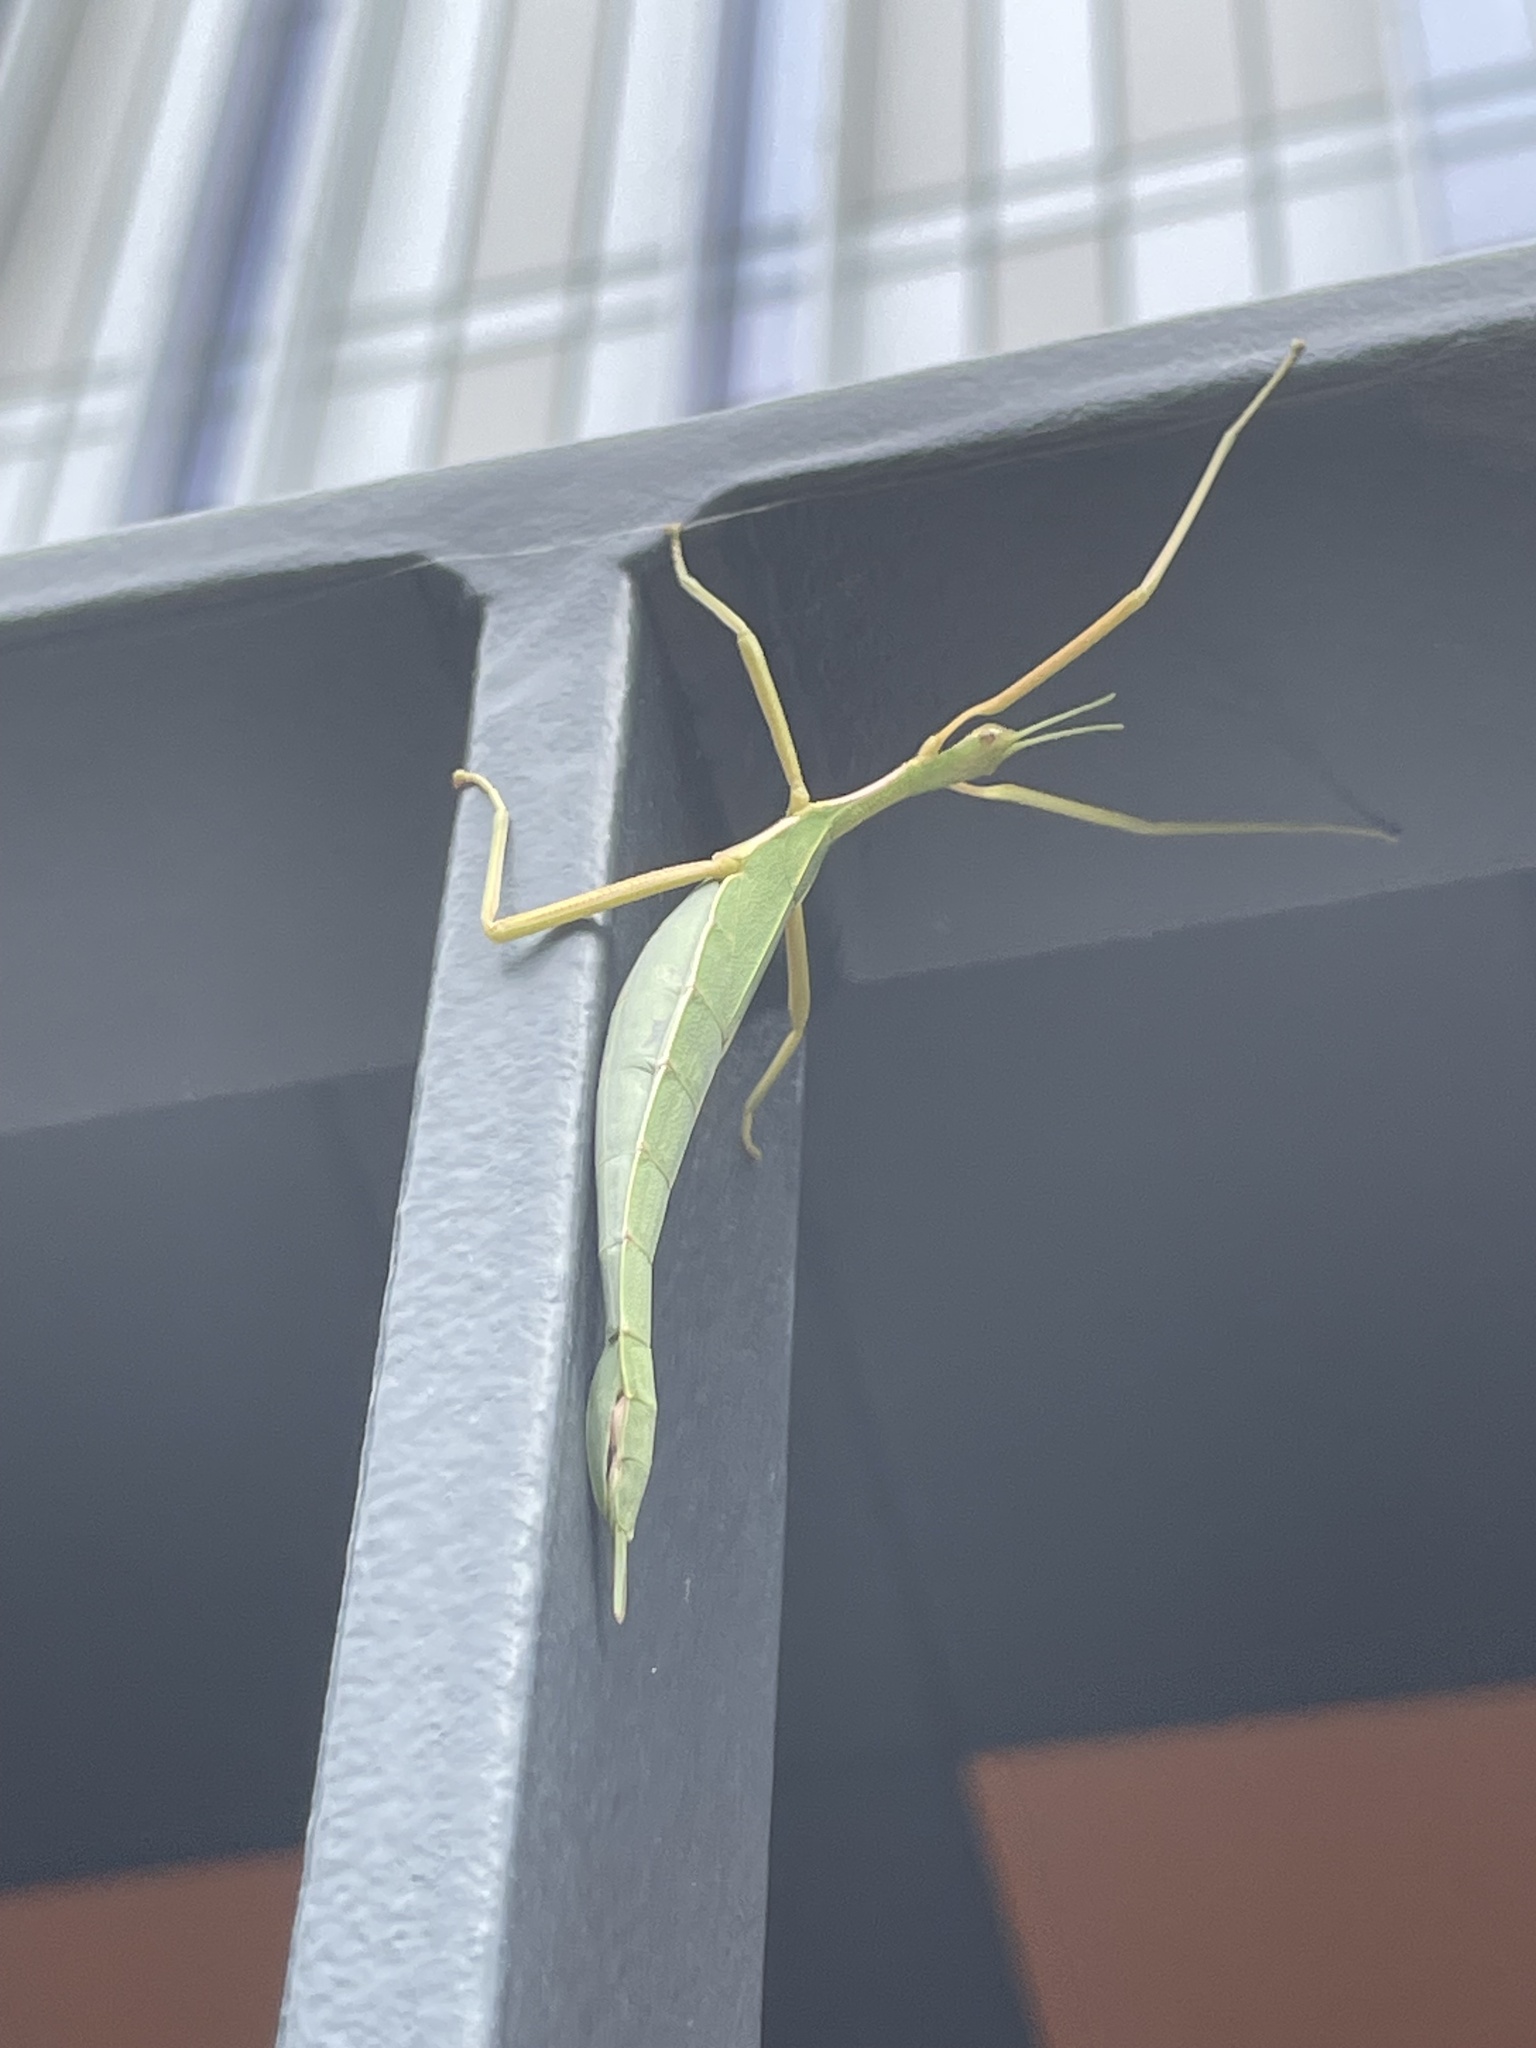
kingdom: Animalia
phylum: Arthropoda
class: Insecta
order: Phasmida
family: Phasmatidae
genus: Didymuria
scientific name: Didymuria violescens
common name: Spur-legged stick-insect
